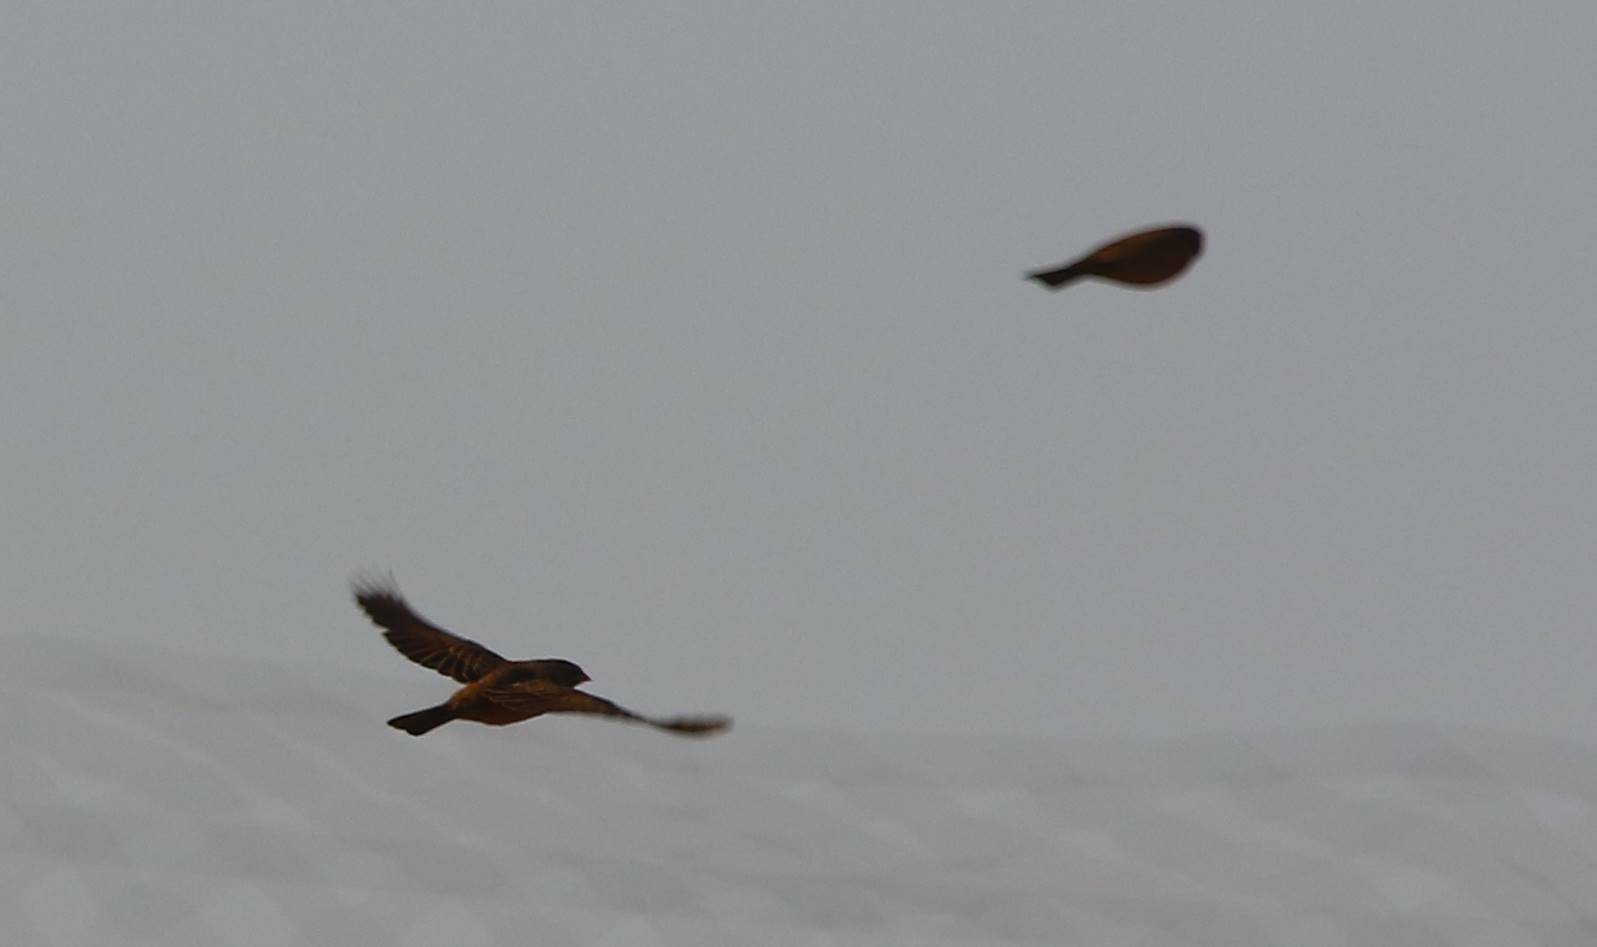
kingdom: Animalia
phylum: Chordata
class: Aves
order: Passeriformes
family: Emberizidae
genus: Emberiza
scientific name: Emberiza sahari
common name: House bunting
